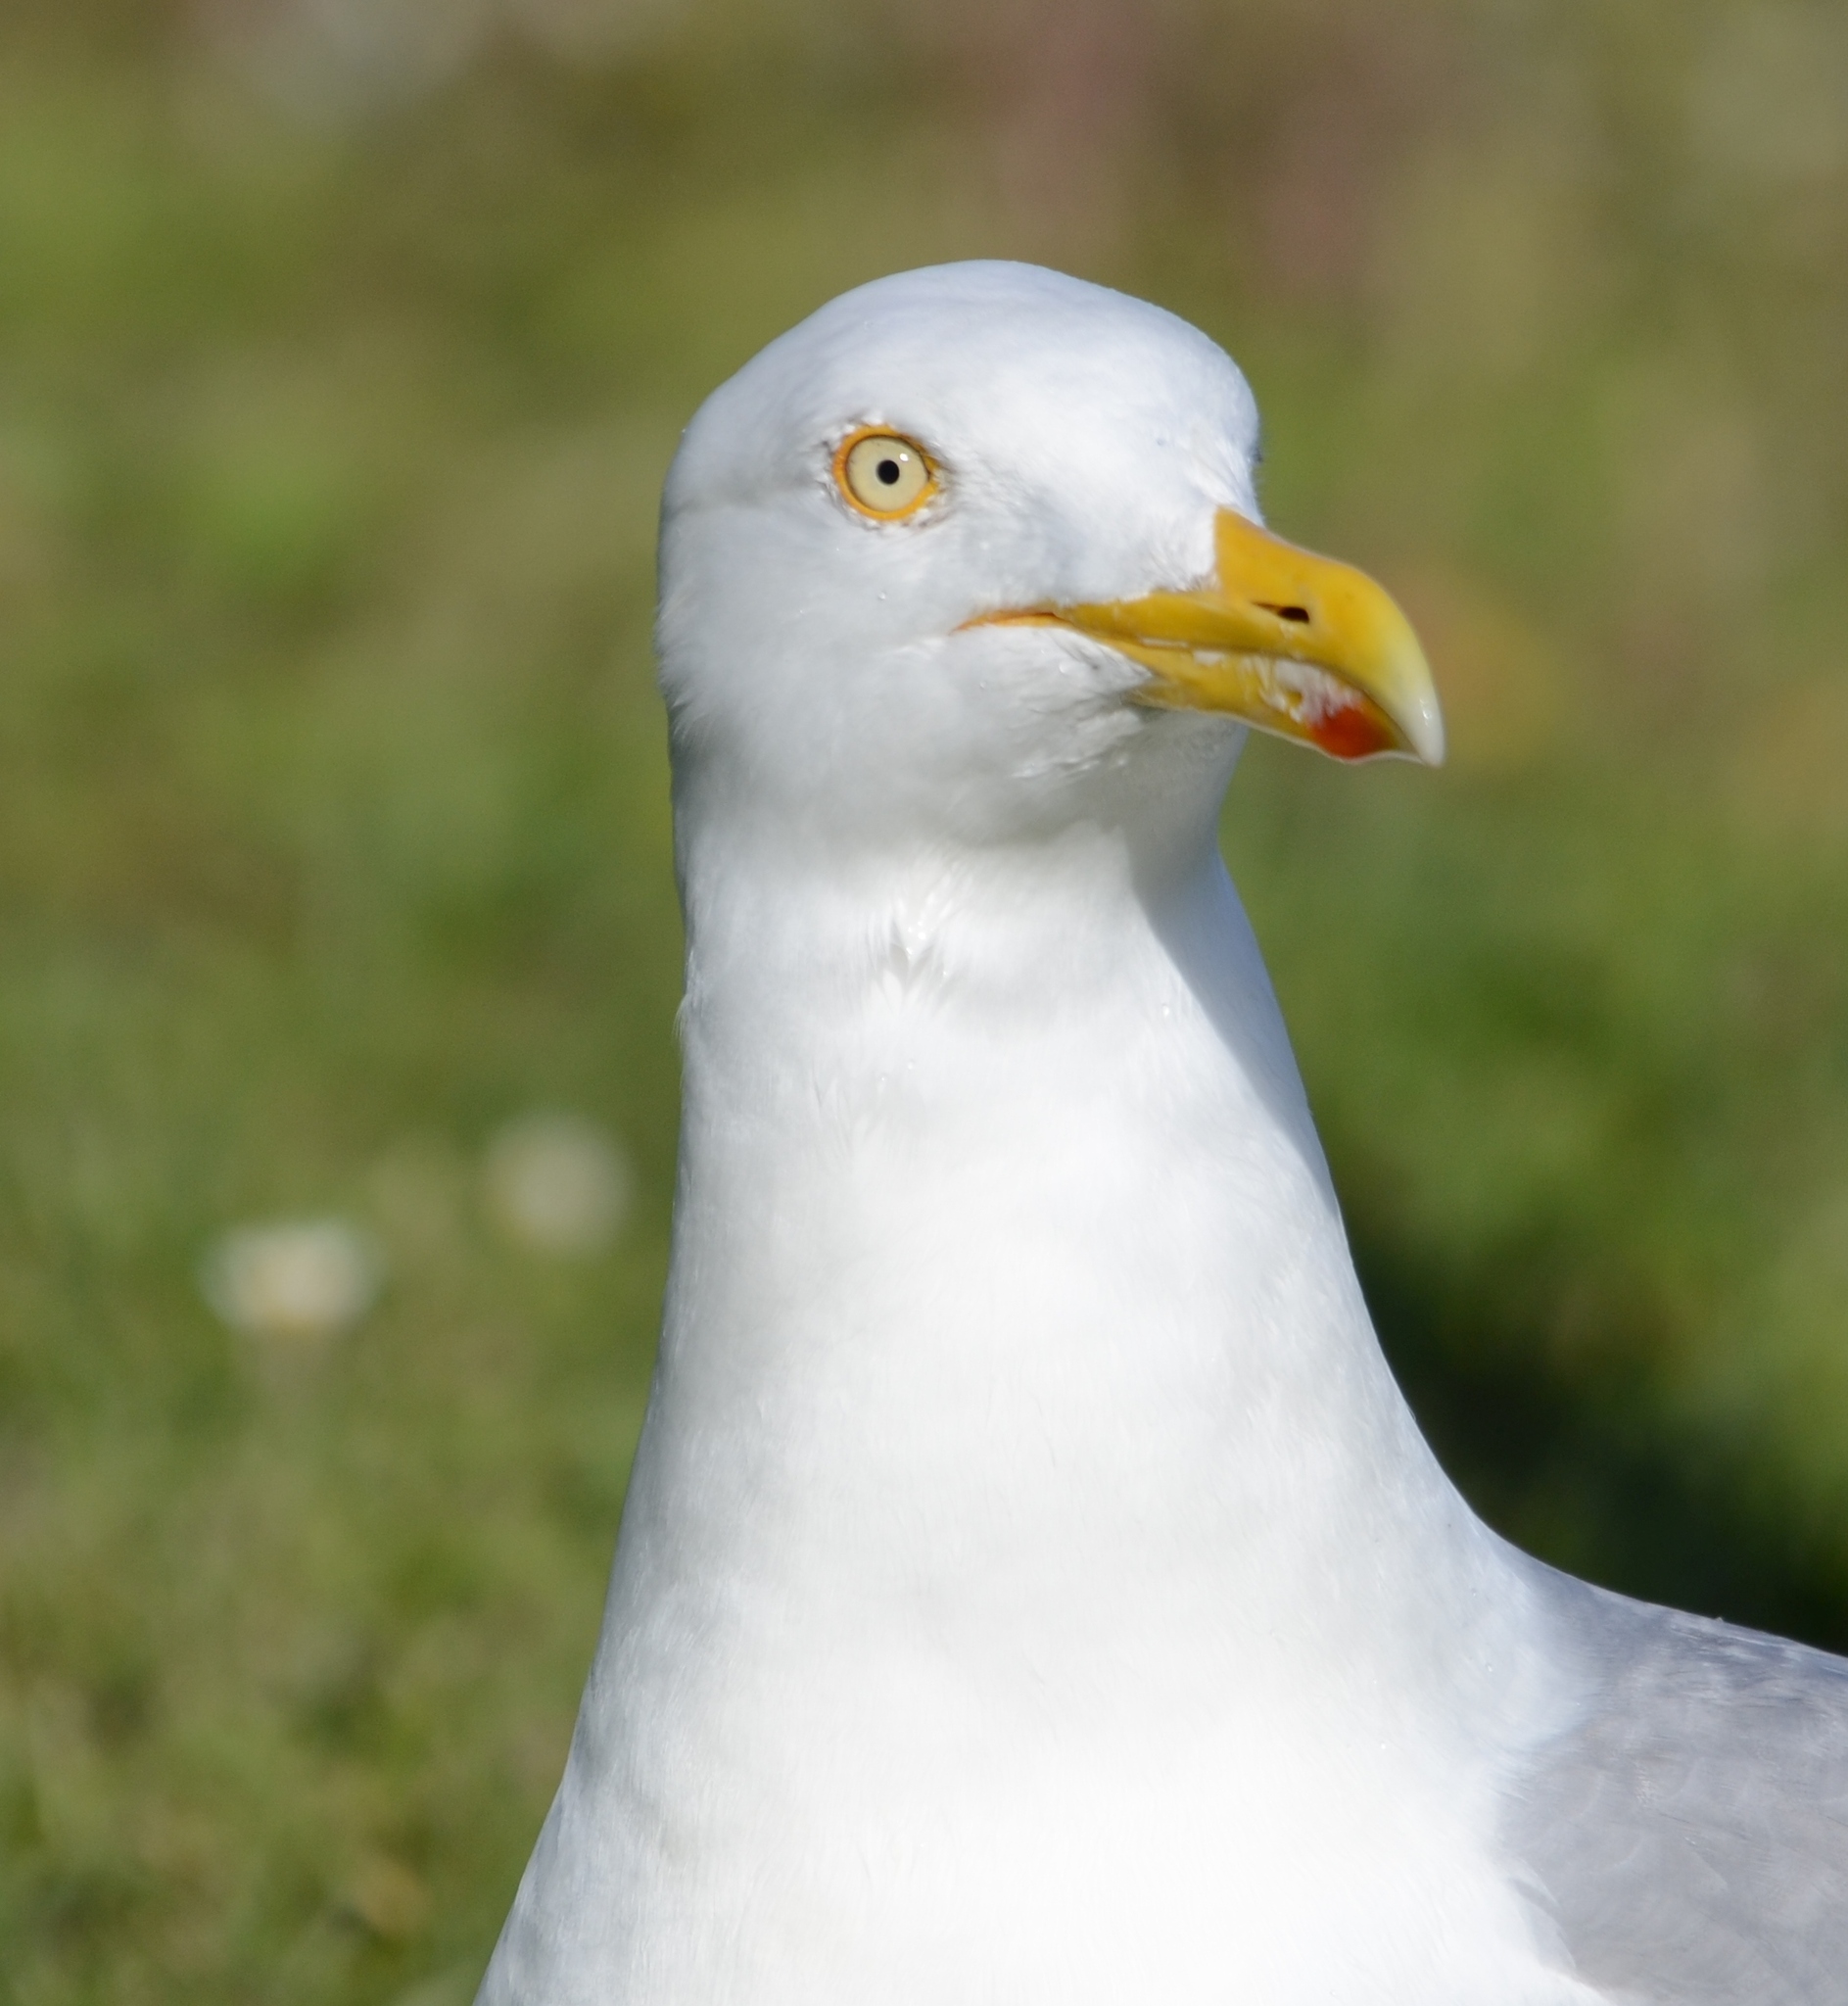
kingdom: Animalia
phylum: Chordata
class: Aves
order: Charadriiformes
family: Laridae
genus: Larus
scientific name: Larus argentatus
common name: Herring gull
